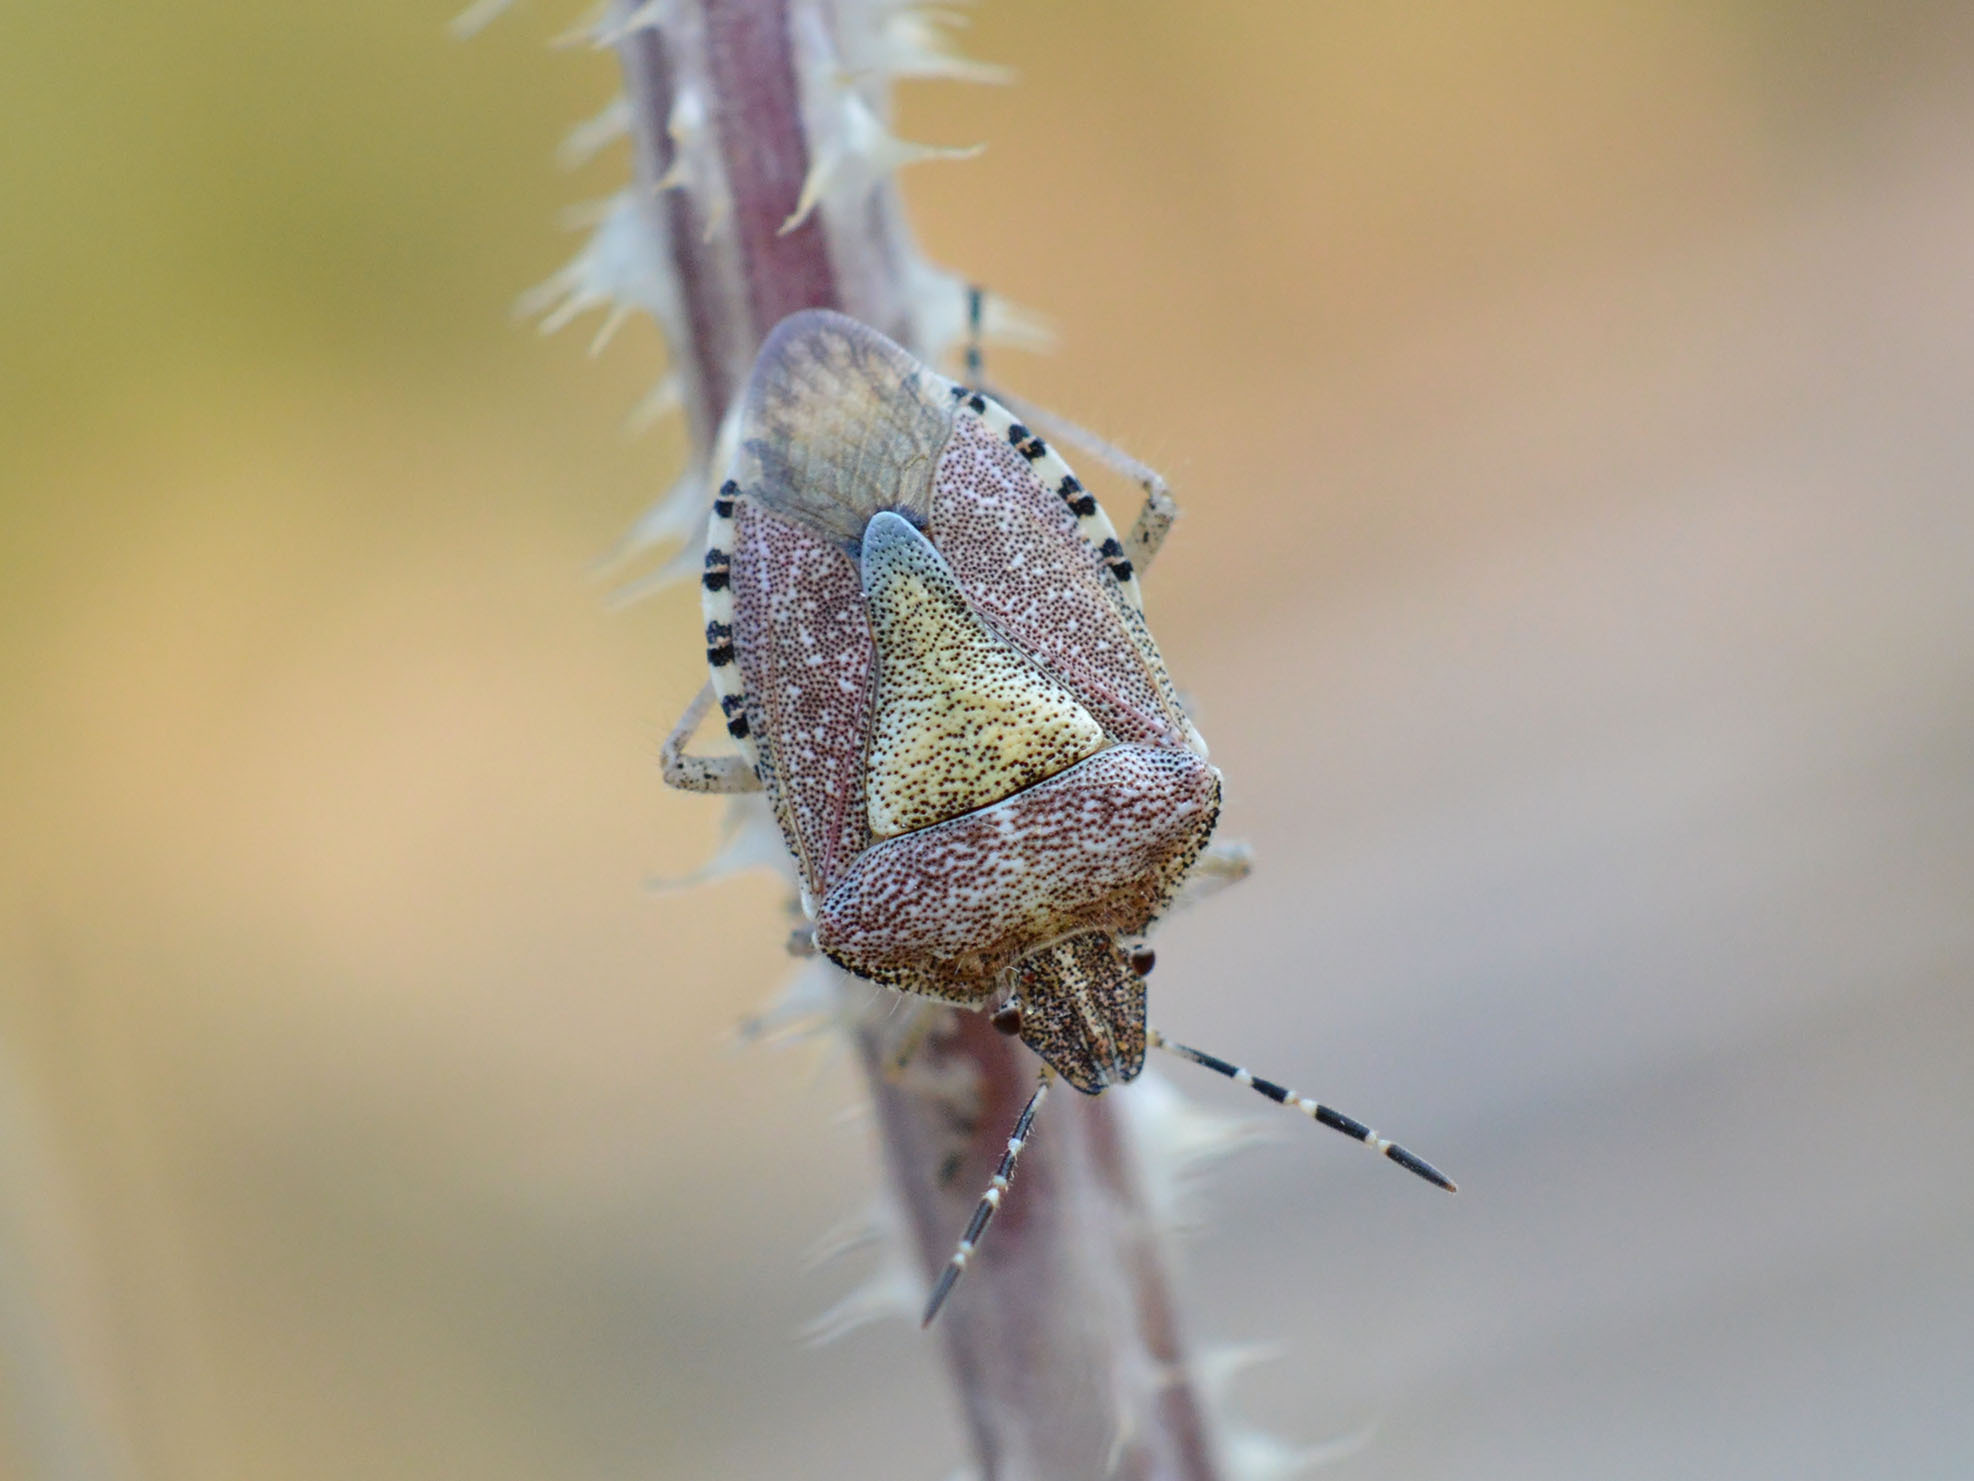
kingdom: Animalia
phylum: Arthropoda
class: Insecta
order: Hemiptera
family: Pentatomidae
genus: Dolycoris
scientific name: Dolycoris baccarum
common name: Sloe bug
